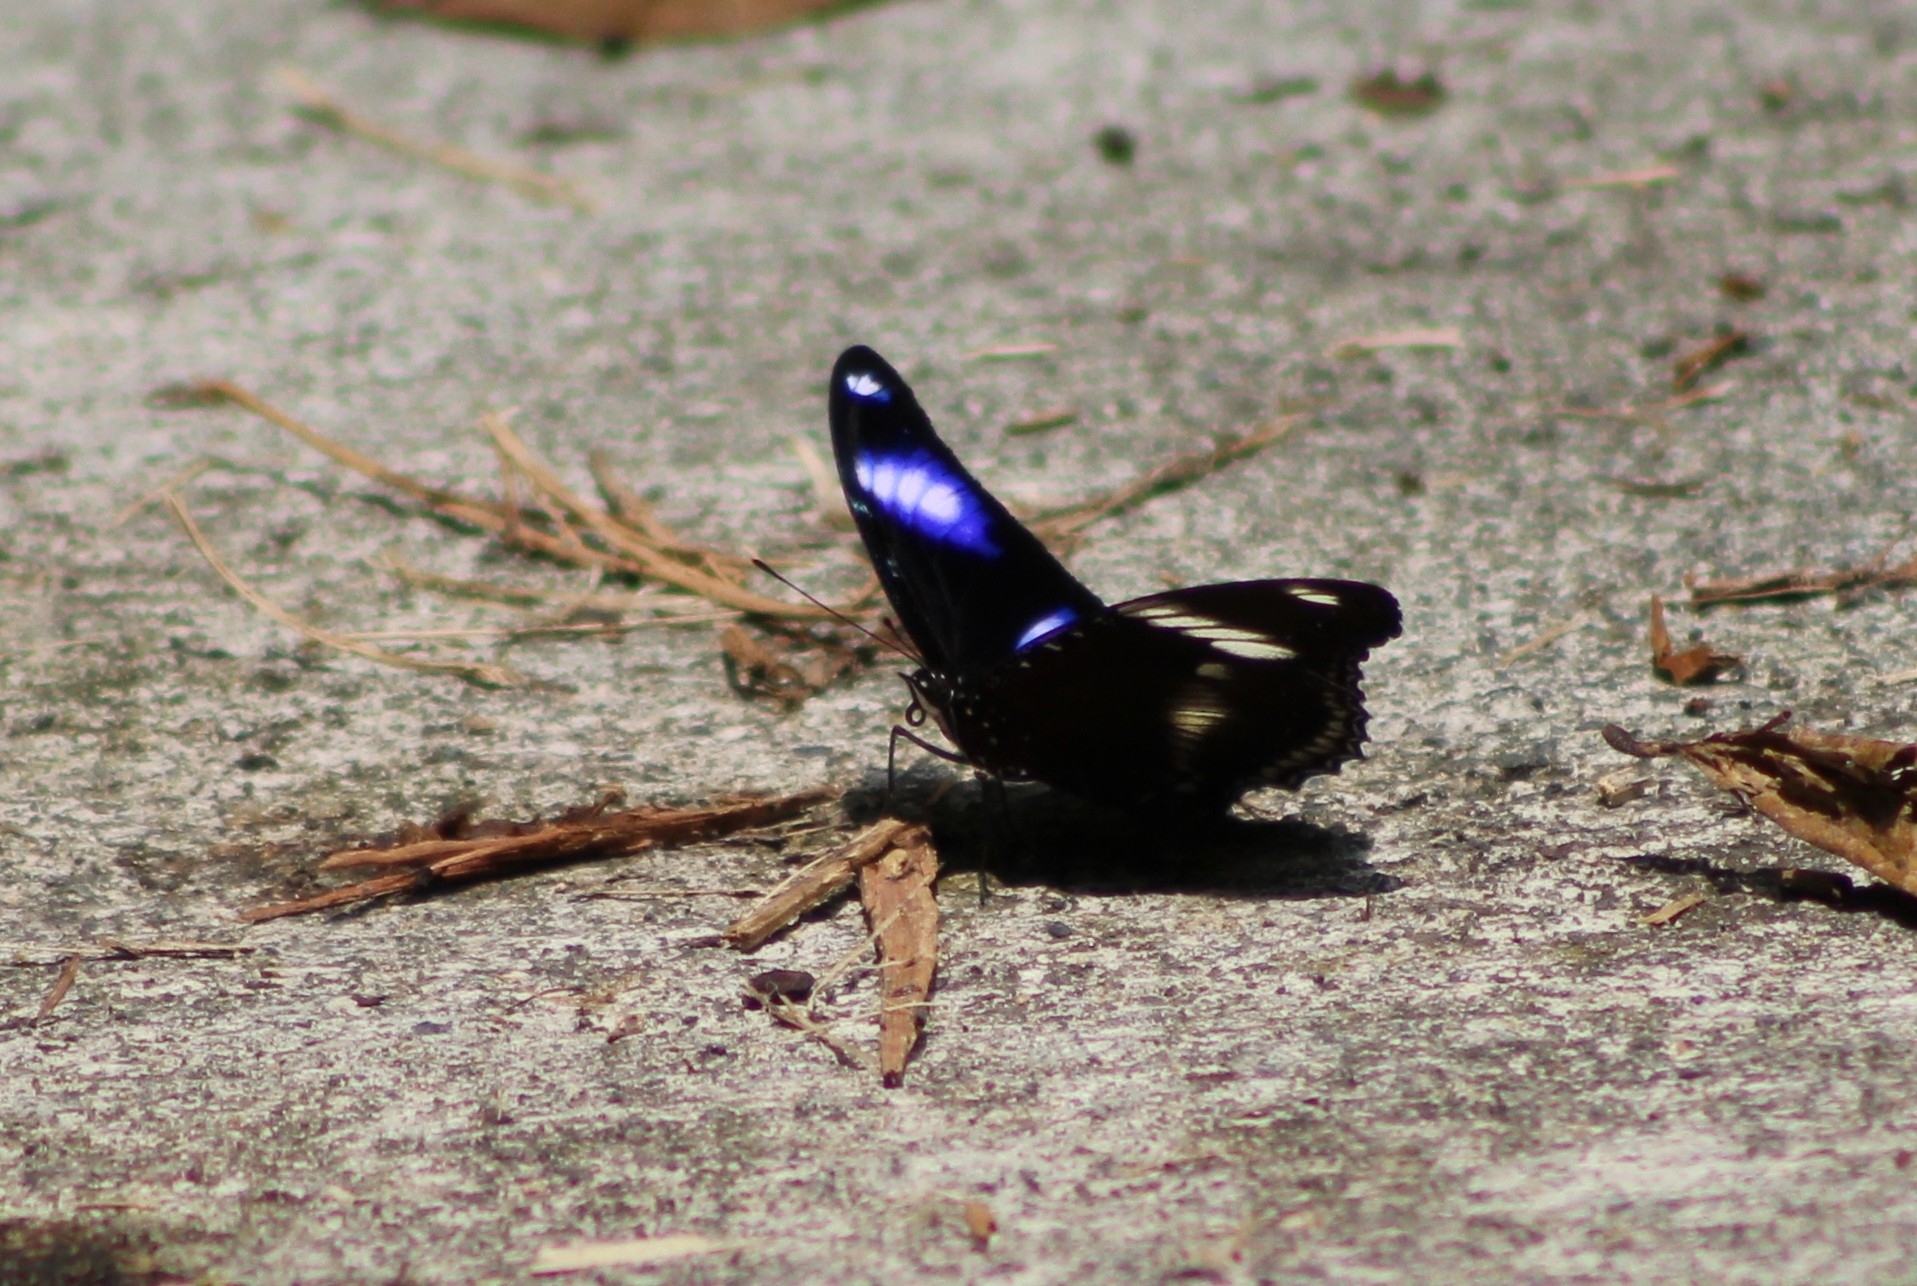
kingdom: Animalia
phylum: Arthropoda
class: Insecta
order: Lepidoptera
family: Nymphalidae
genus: Hypolimnas
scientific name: Hypolimnas bolina
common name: Great eggfly
